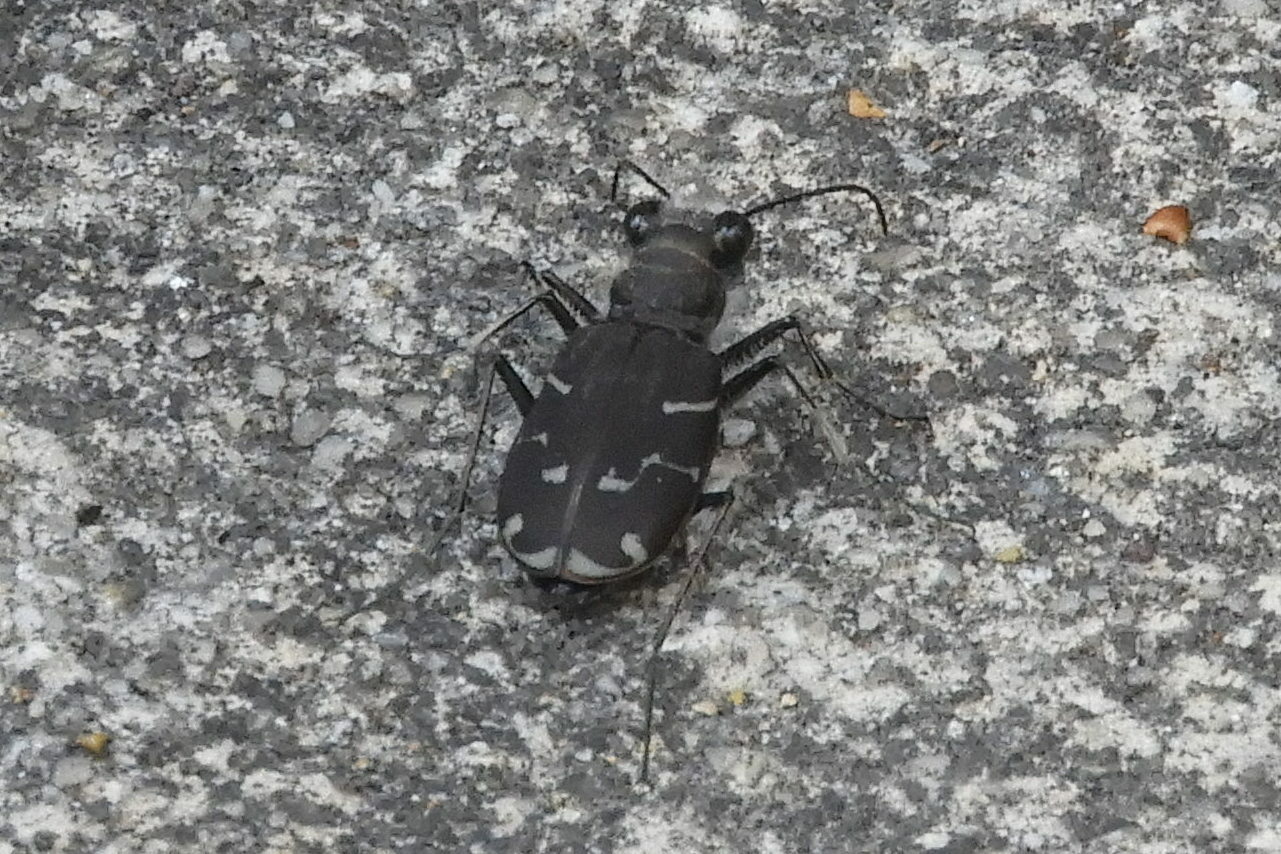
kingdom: Animalia
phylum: Arthropoda
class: Insecta
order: Coleoptera
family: Carabidae
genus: Cicindela
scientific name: Cicindela tranquebarica
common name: Oblique-lined tiger beetle
